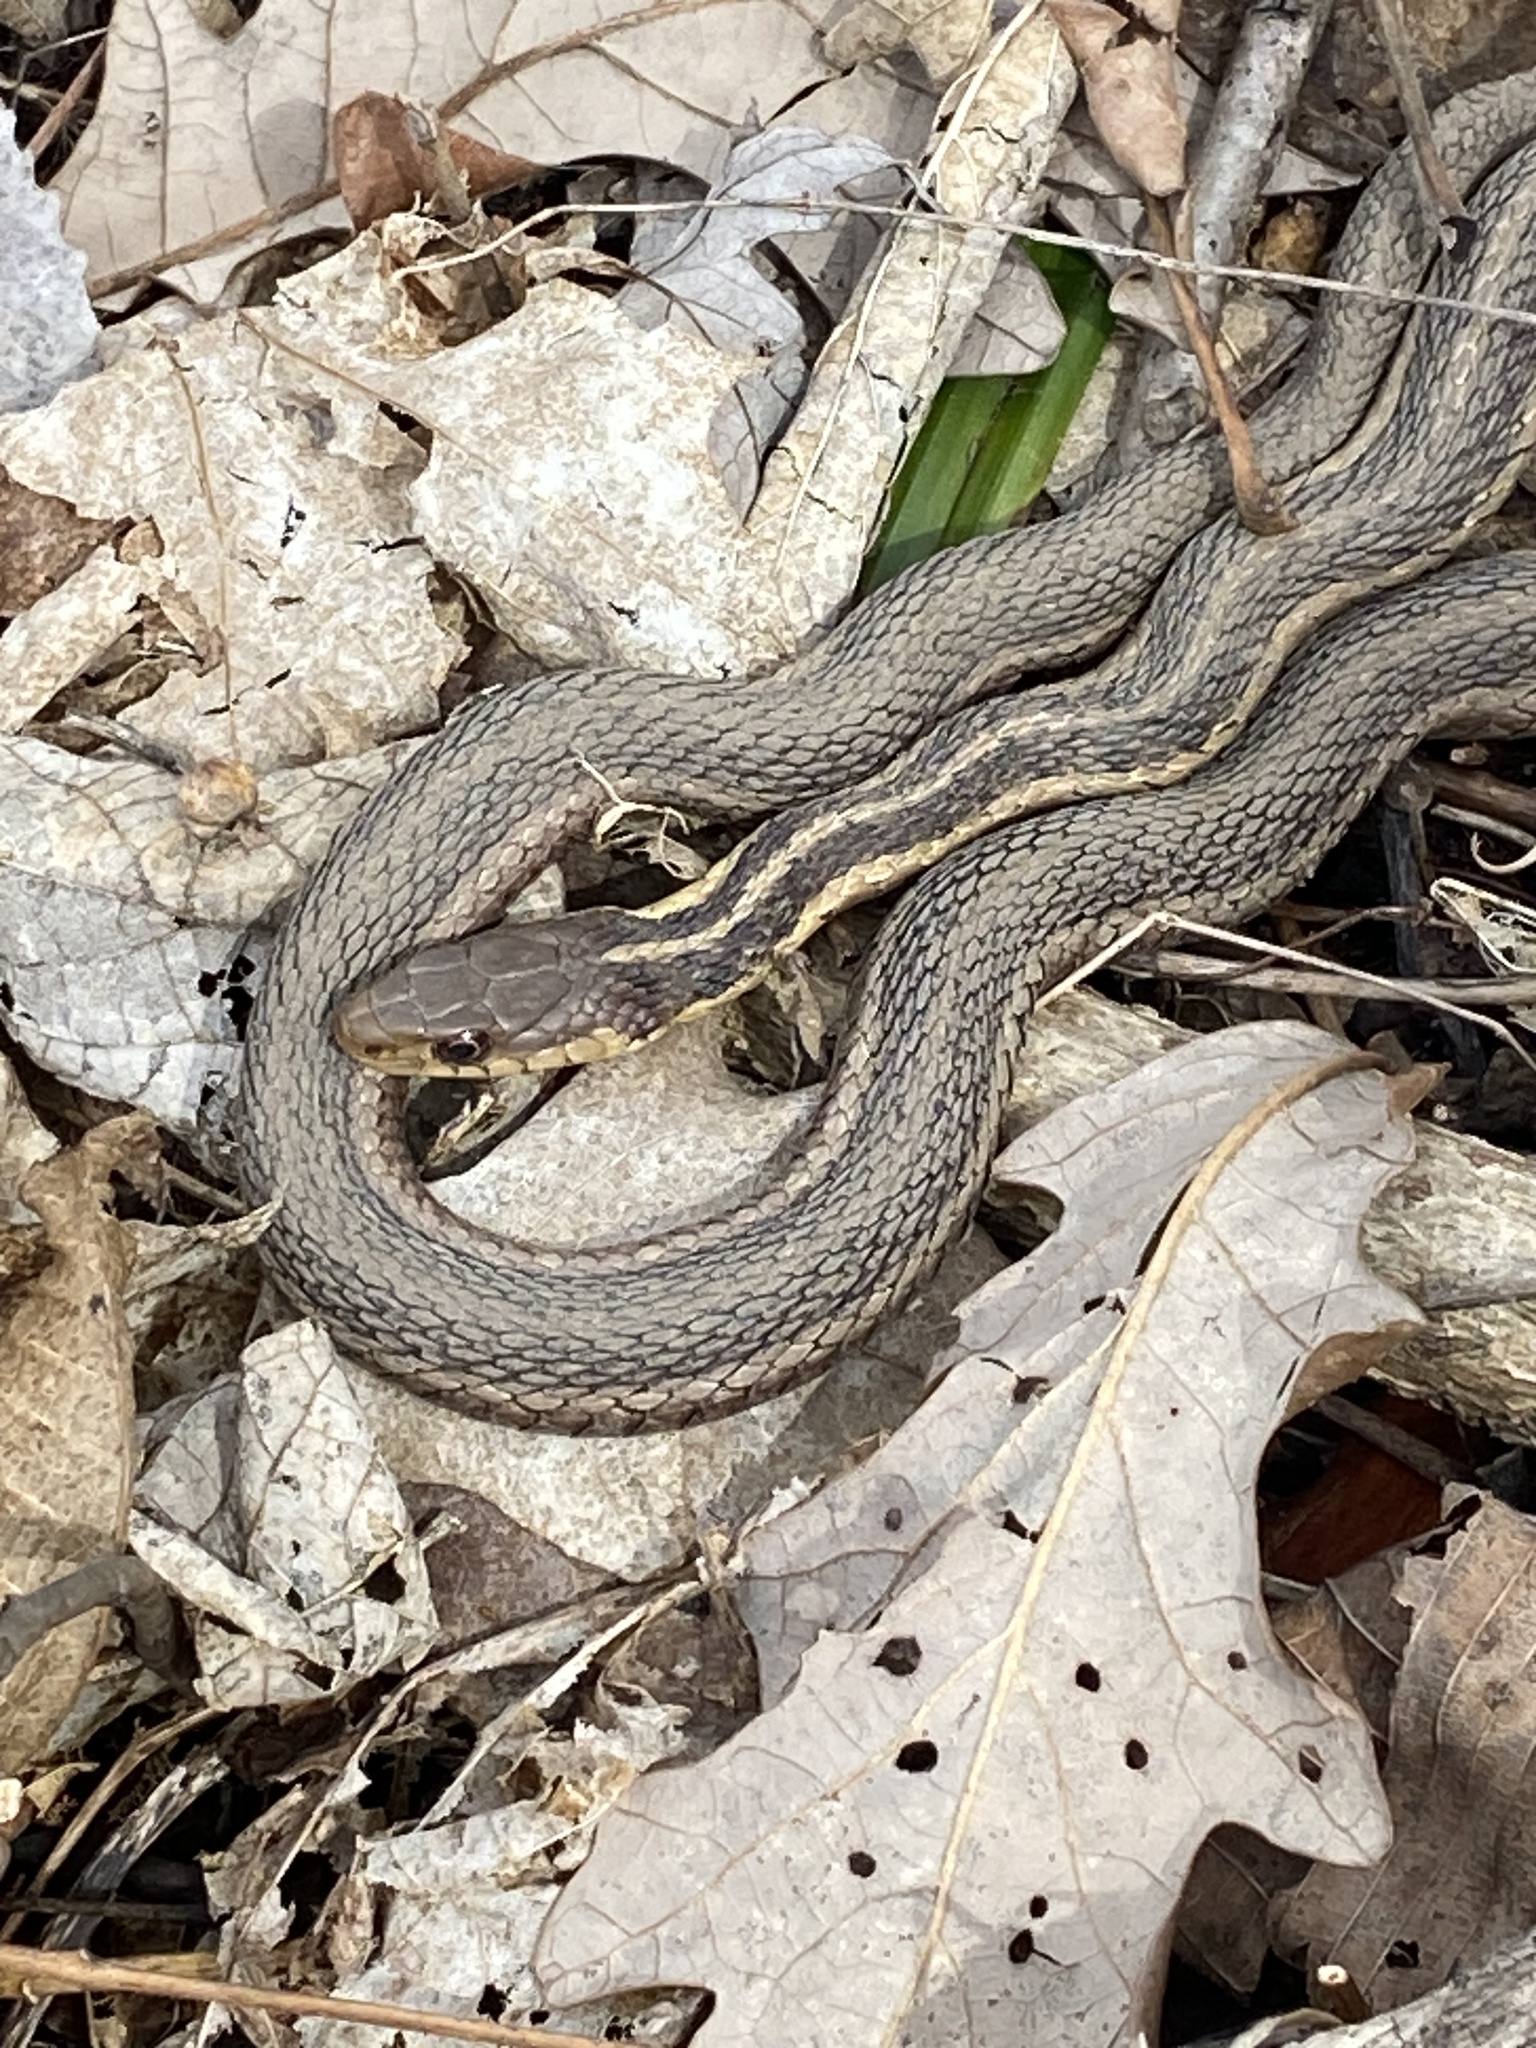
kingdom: Animalia
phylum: Chordata
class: Squamata
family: Colubridae
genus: Thamnophis
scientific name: Thamnophis sirtalis
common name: Common garter snake
